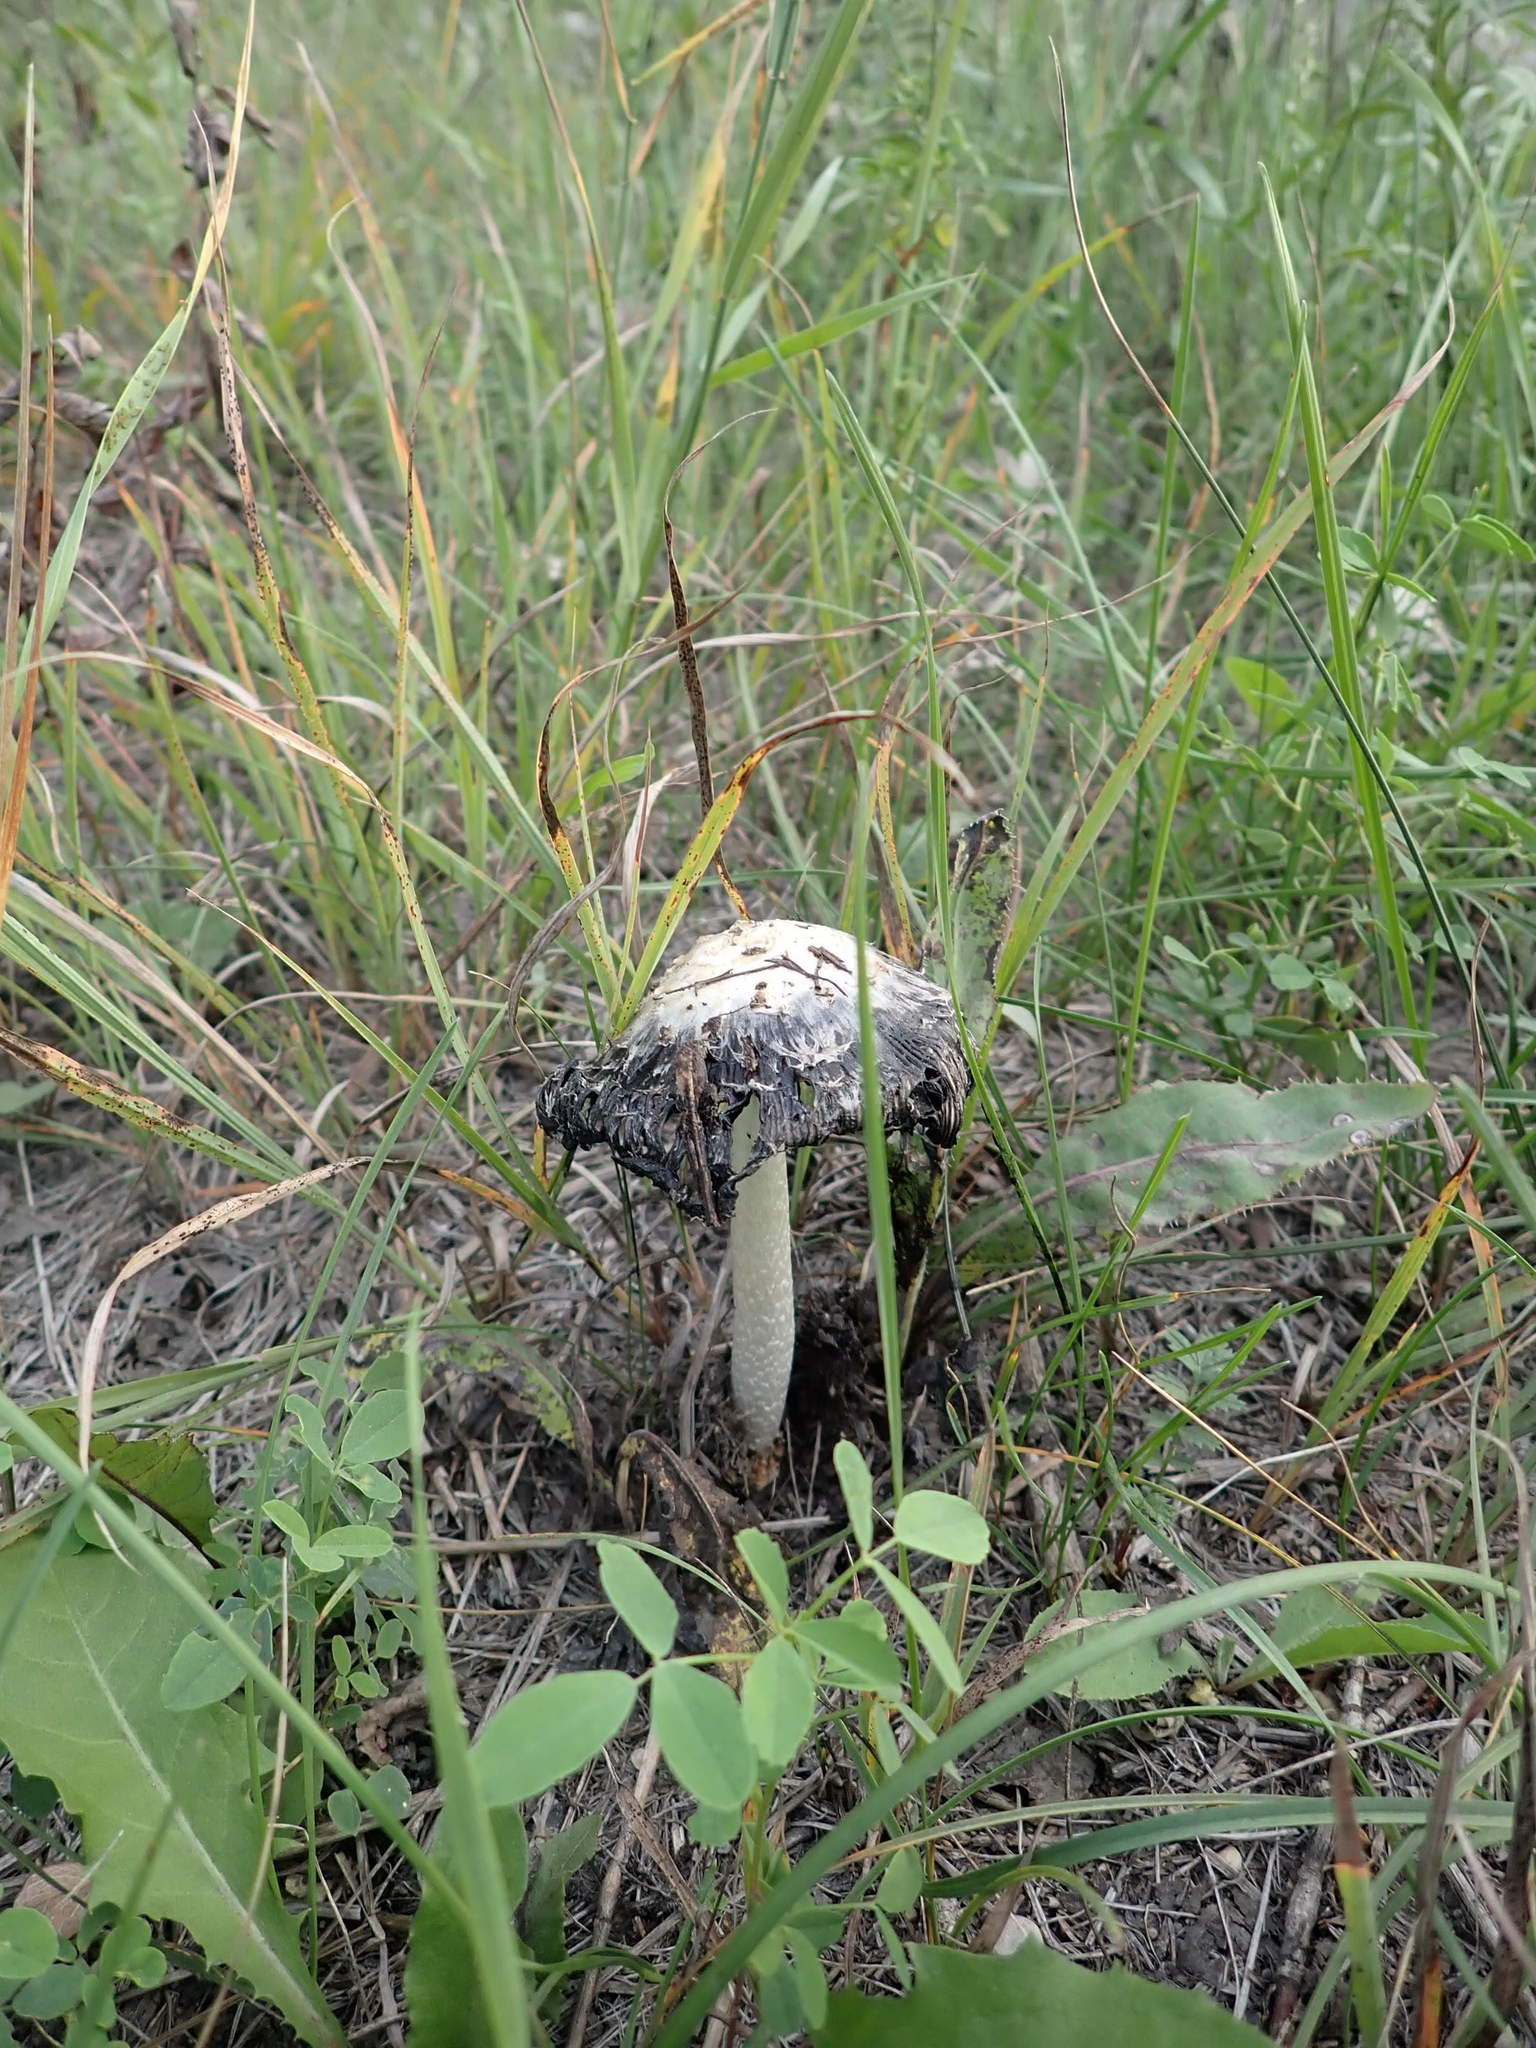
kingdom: Fungi
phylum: Basidiomycota
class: Agaricomycetes
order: Agaricales
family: Agaricaceae
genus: Coprinus
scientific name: Coprinus comatus
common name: Lawyer's wig
